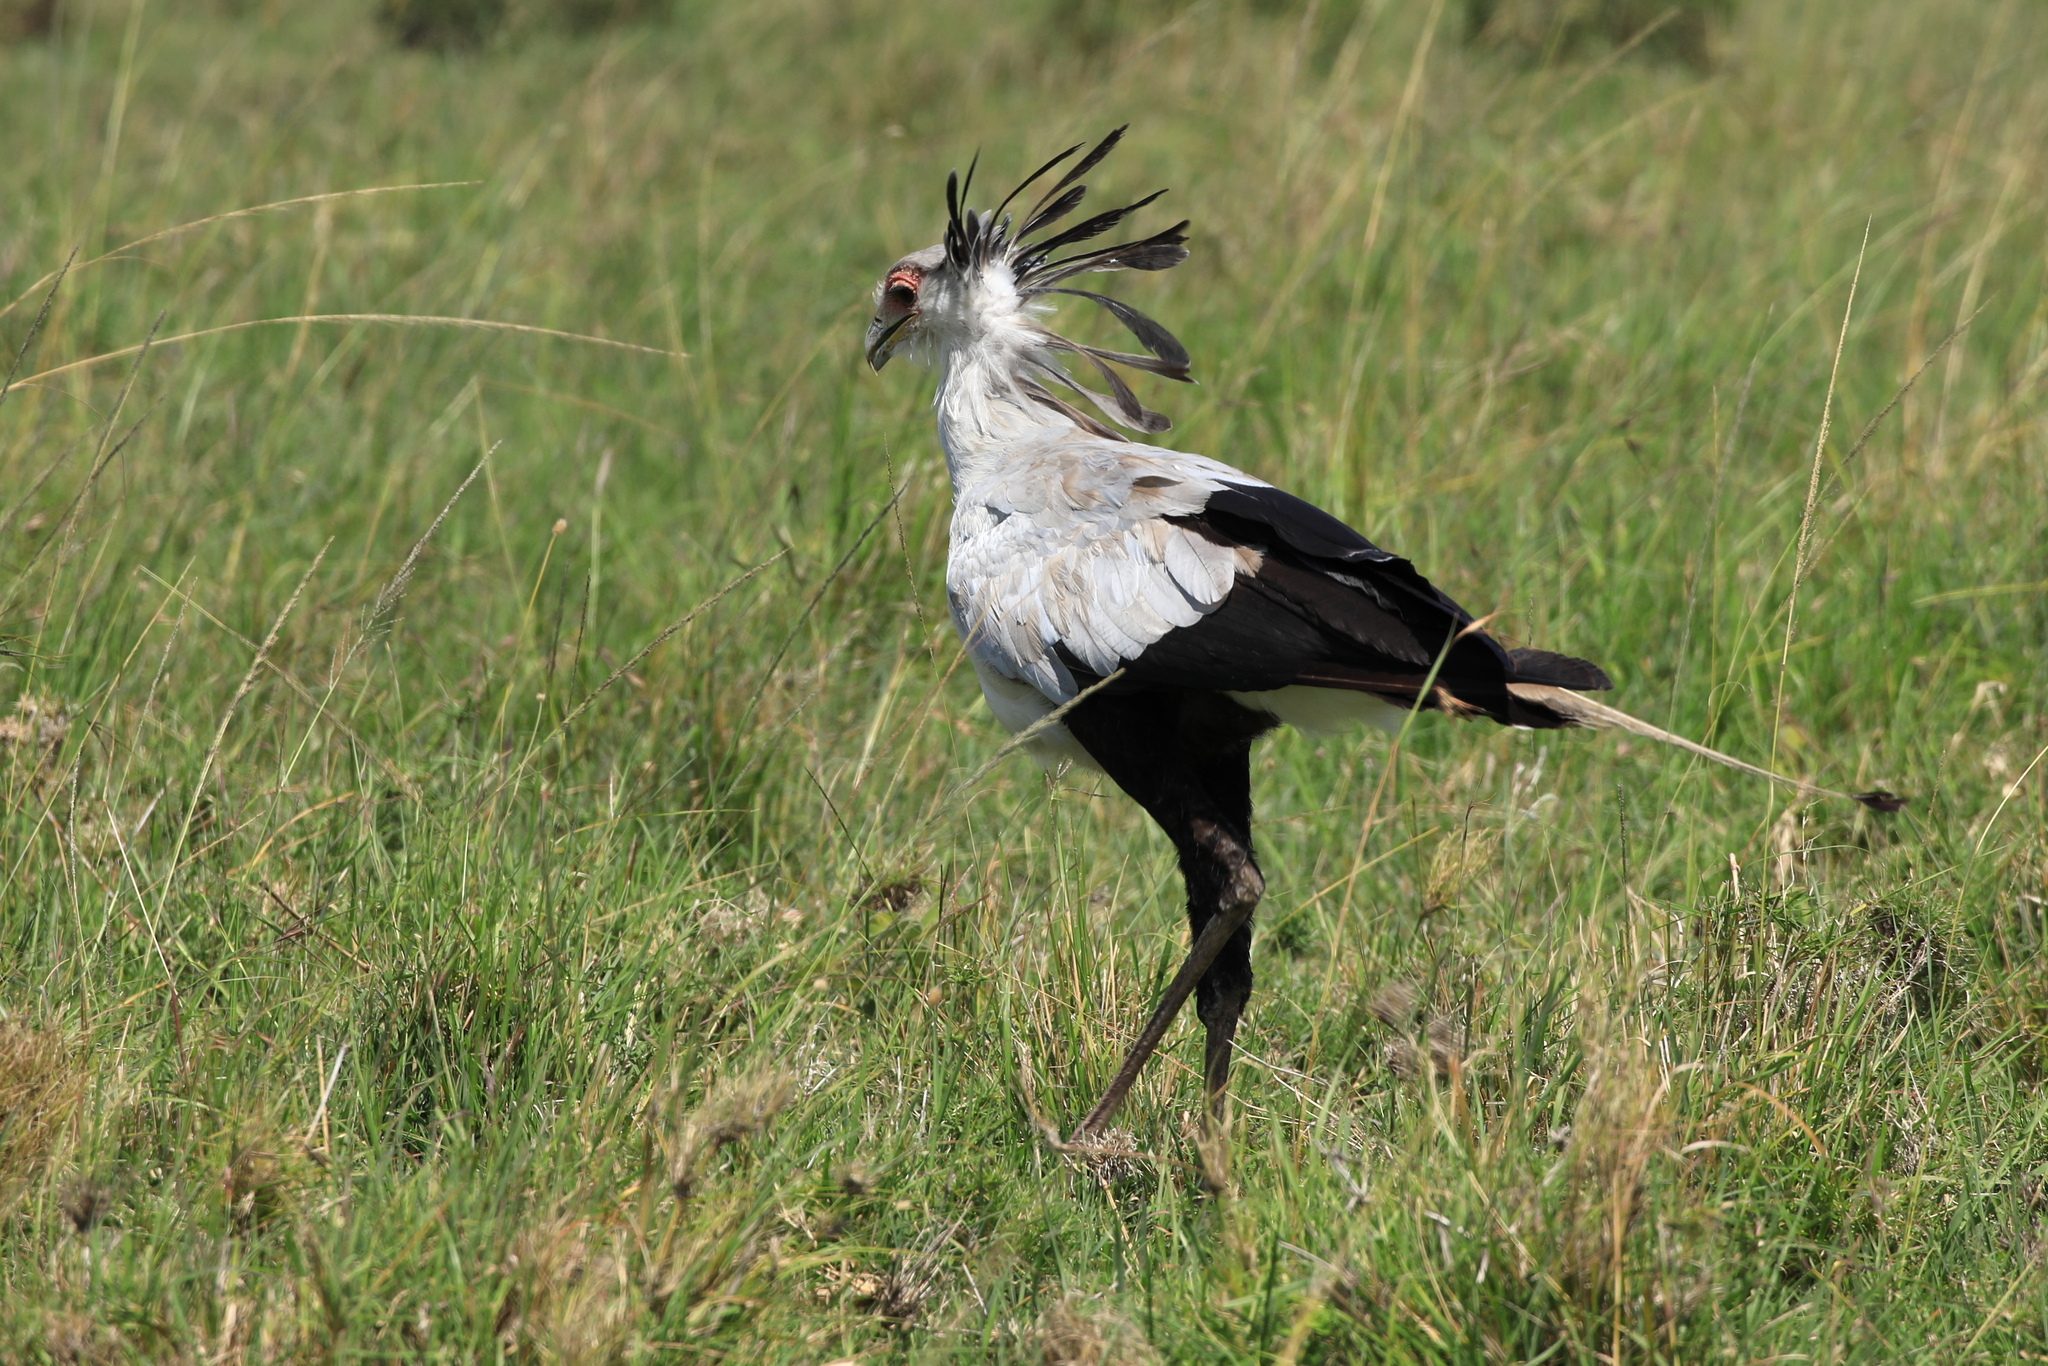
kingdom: Animalia
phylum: Chordata
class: Aves
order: Accipitriformes
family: Sagittariidae
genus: Sagittarius
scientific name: Sagittarius serpentarius
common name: Secretarybird
